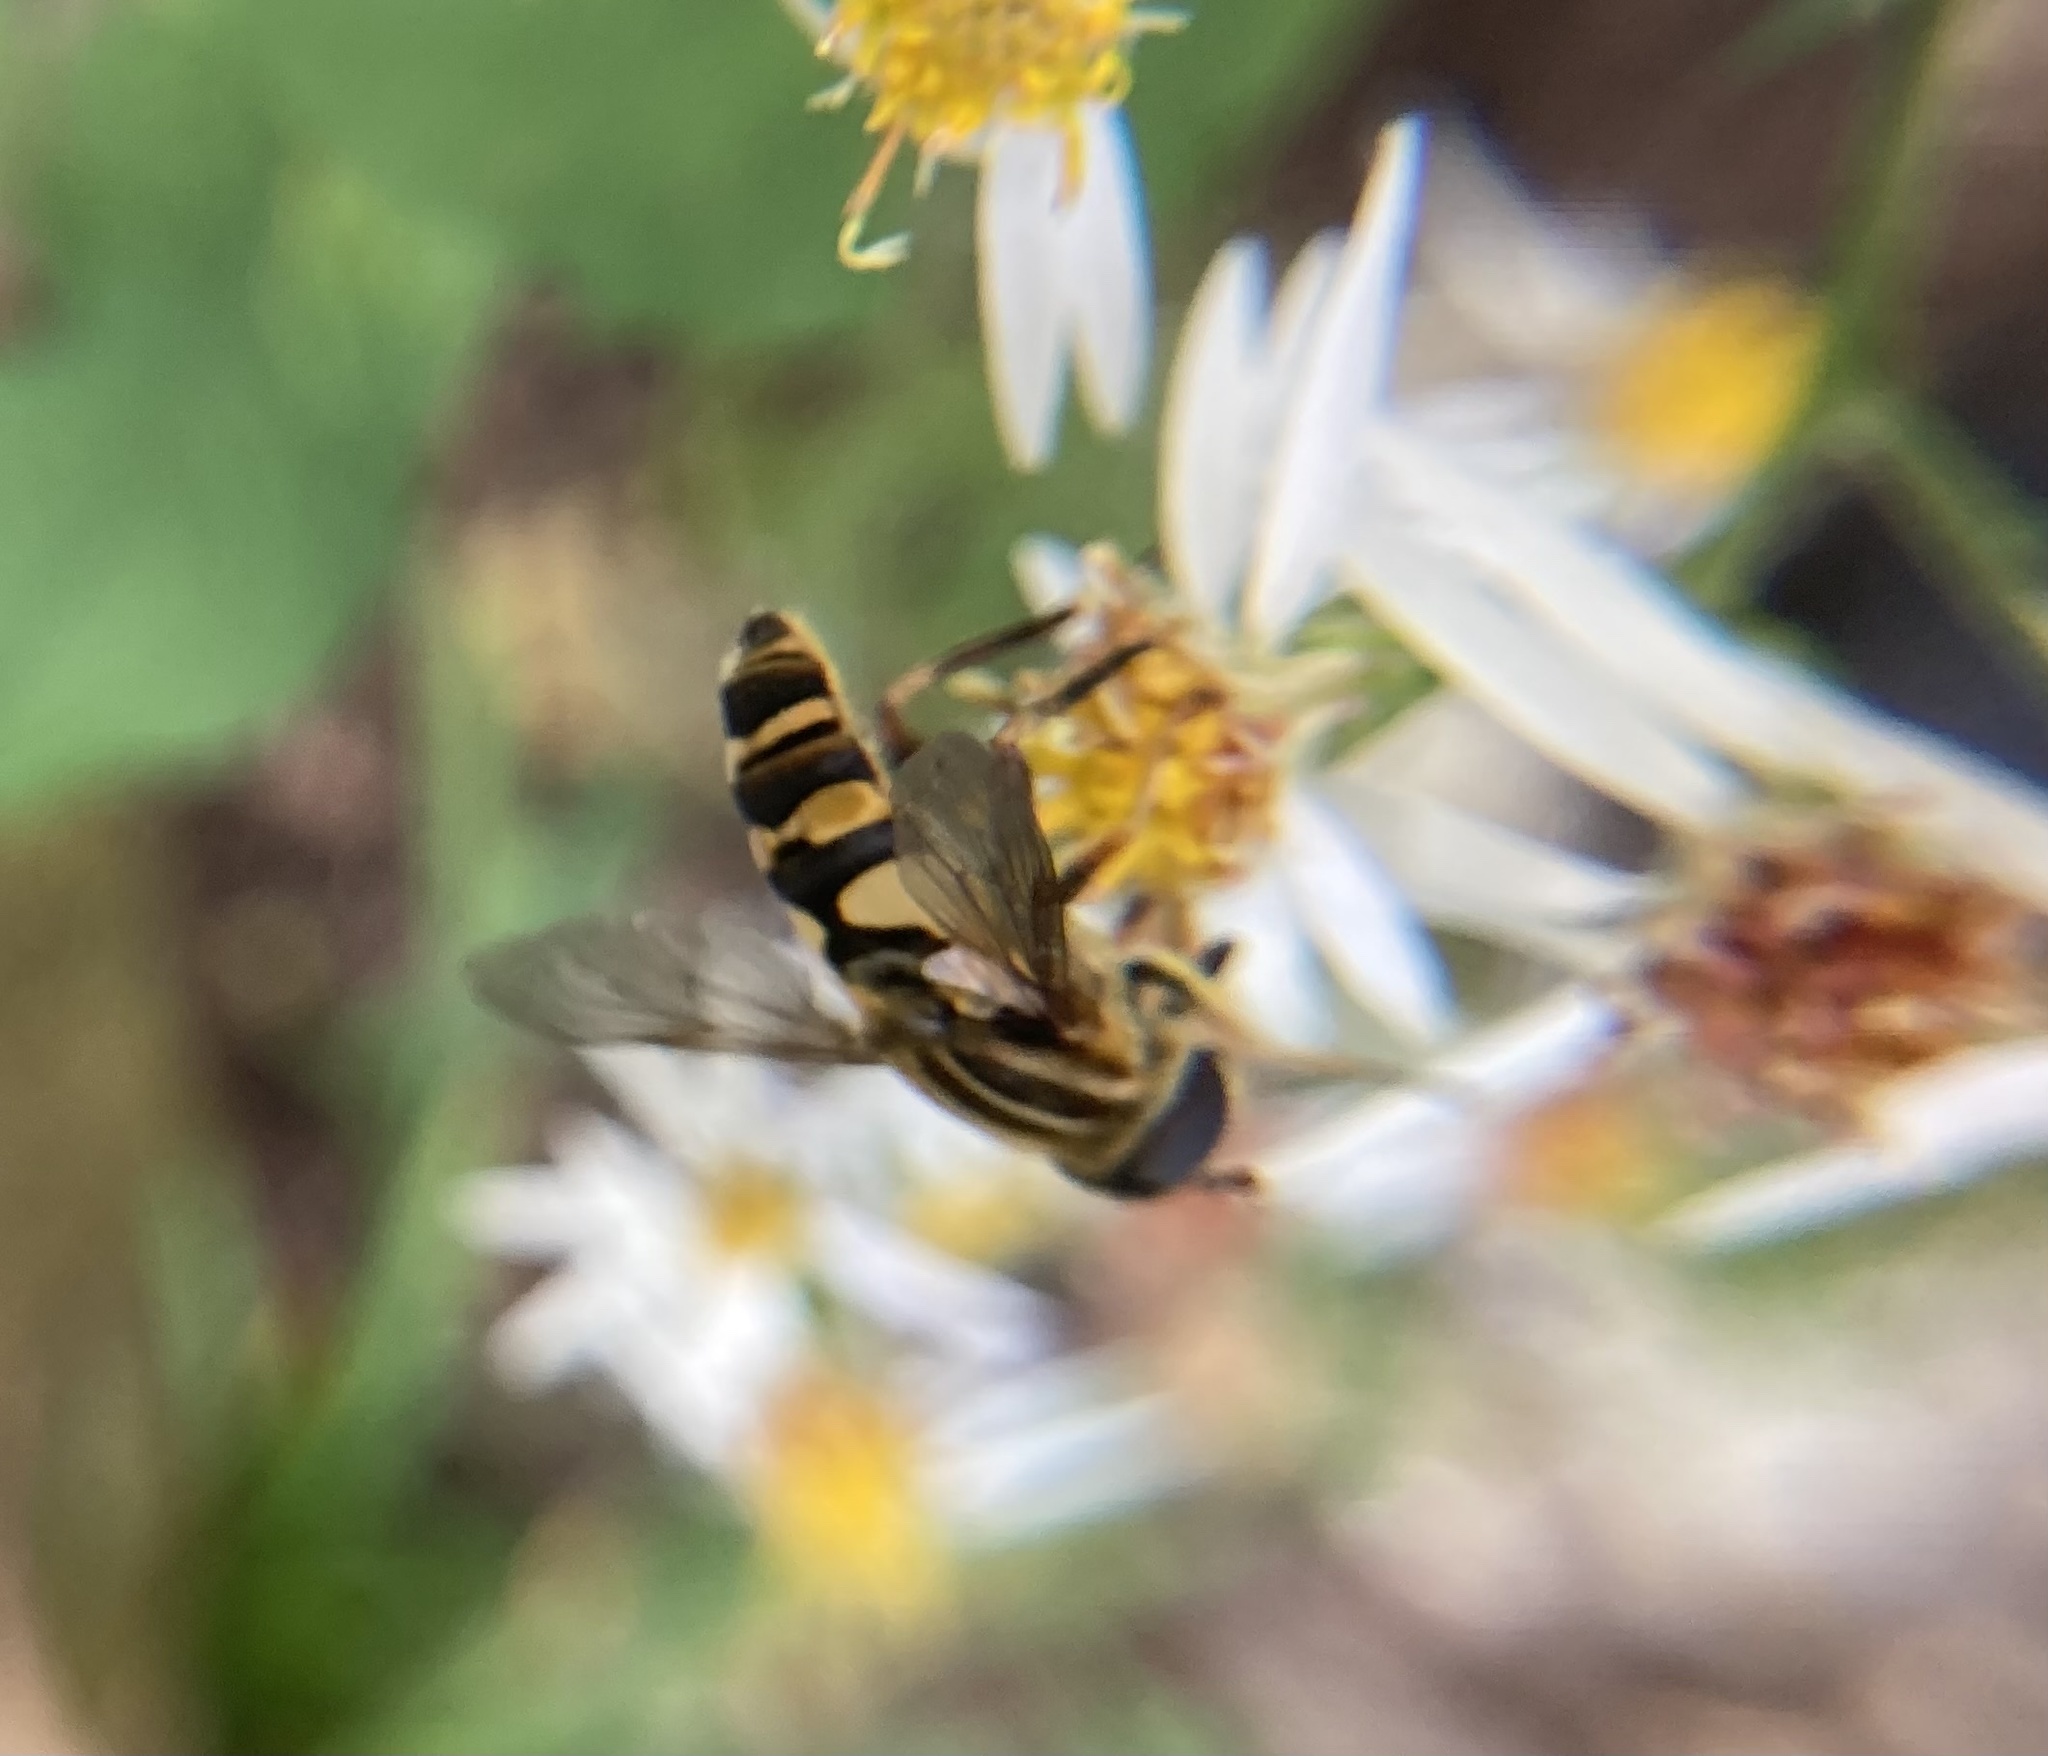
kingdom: Animalia
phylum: Arthropoda
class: Insecta
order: Diptera
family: Syrphidae
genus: Helophilus
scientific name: Helophilus fasciatus
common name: Narrow-headed marsh fly
